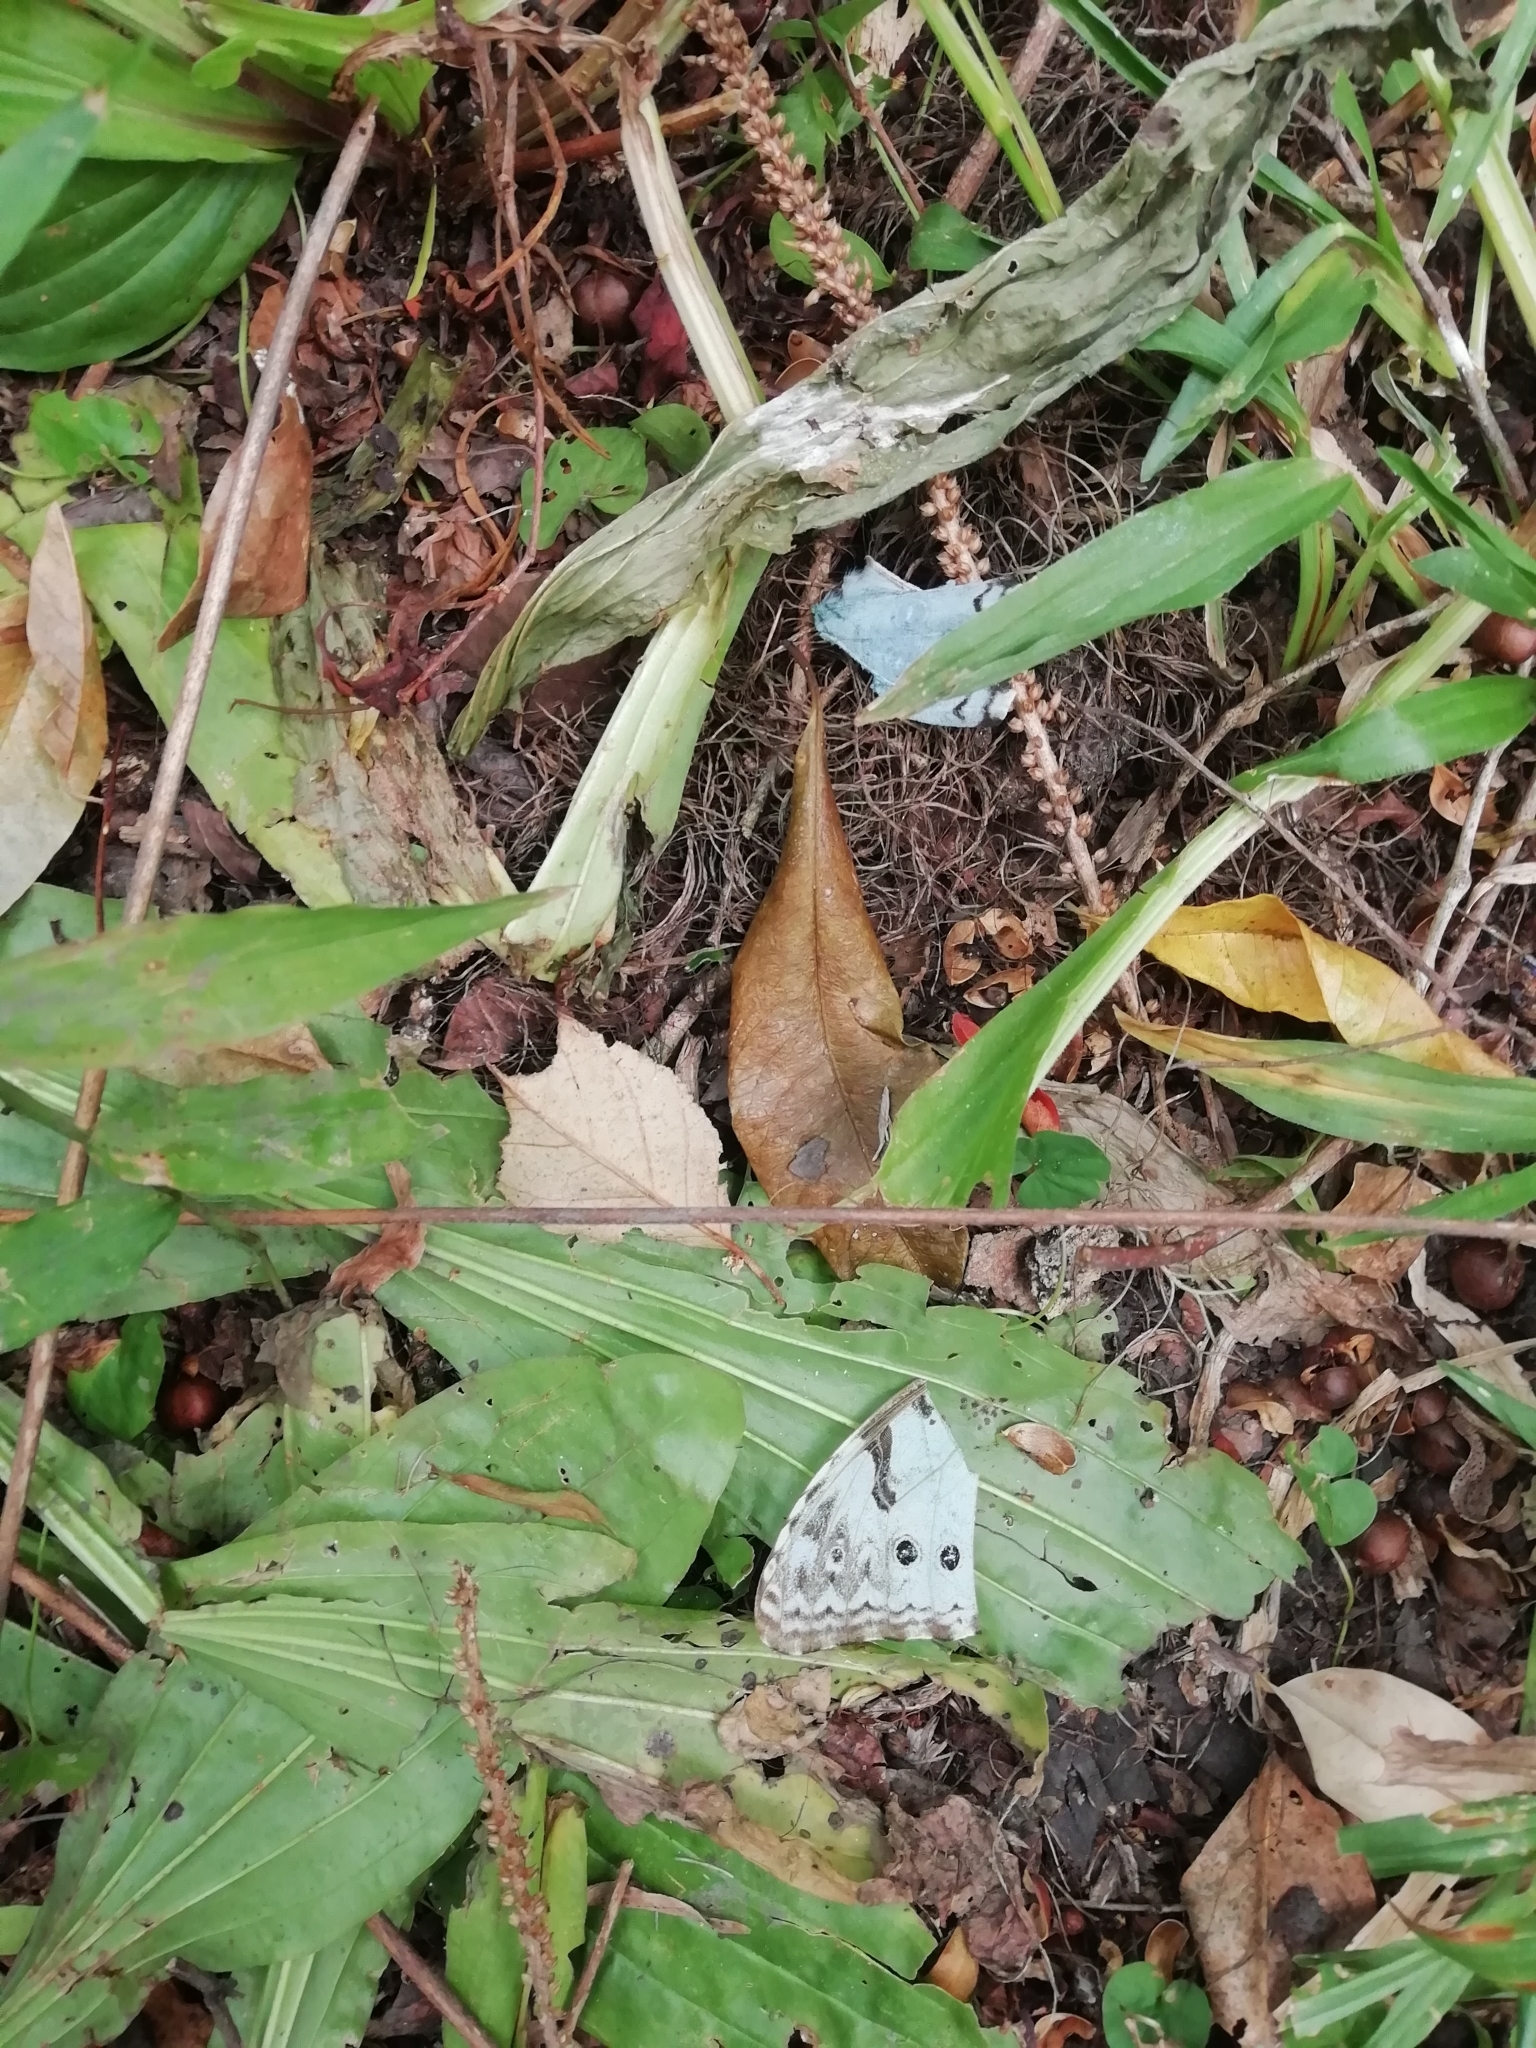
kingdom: Animalia
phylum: Arthropoda
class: Insecta
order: Lepidoptera
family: Nymphalidae
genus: Morpho
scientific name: Morpho epistrophus
